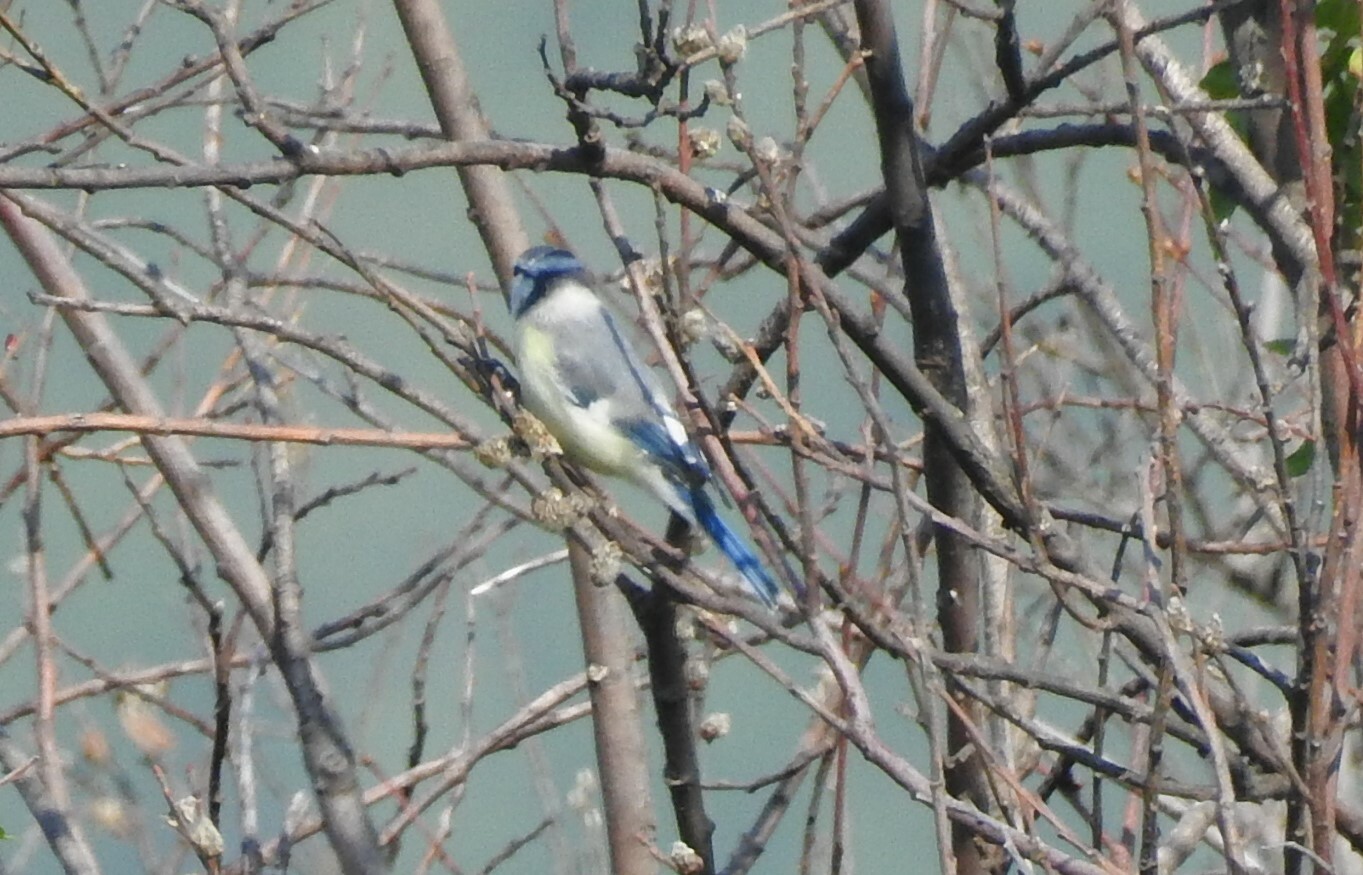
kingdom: Animalia
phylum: Chordata
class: Aves
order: Passeriformes
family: Paridae
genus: Cyanistes
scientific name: Cyanistes cyanus
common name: Azure tit
